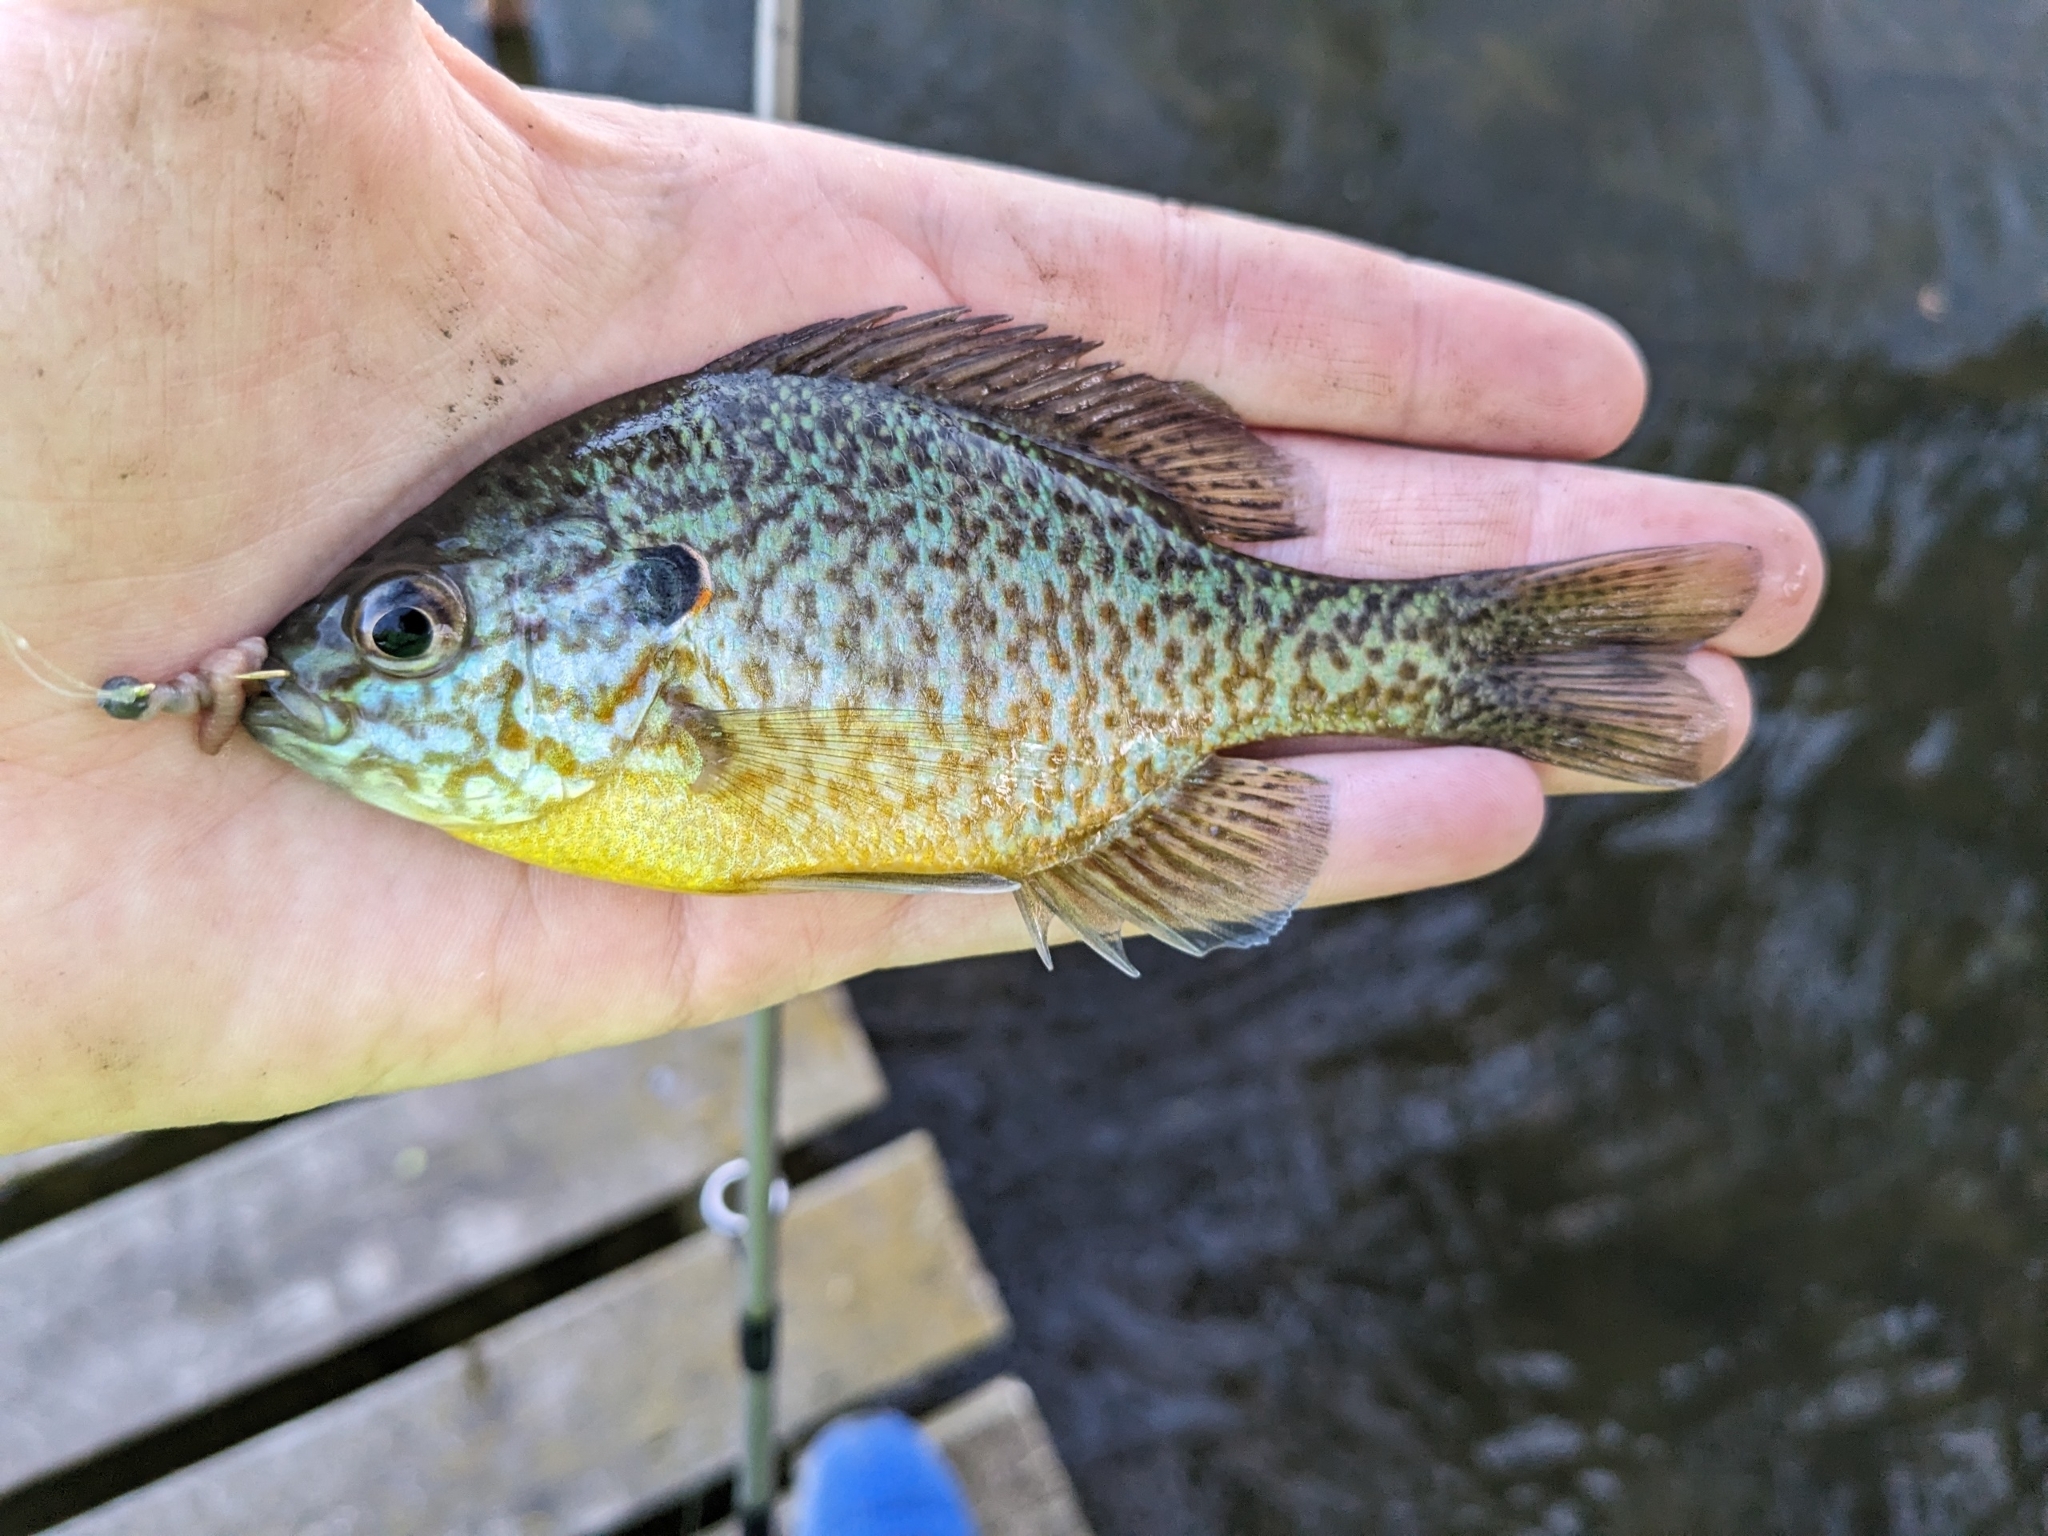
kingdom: Animalia
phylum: Chordata
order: Perciformes
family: Centrarchidae
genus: Lepomis
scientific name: Lepomis
